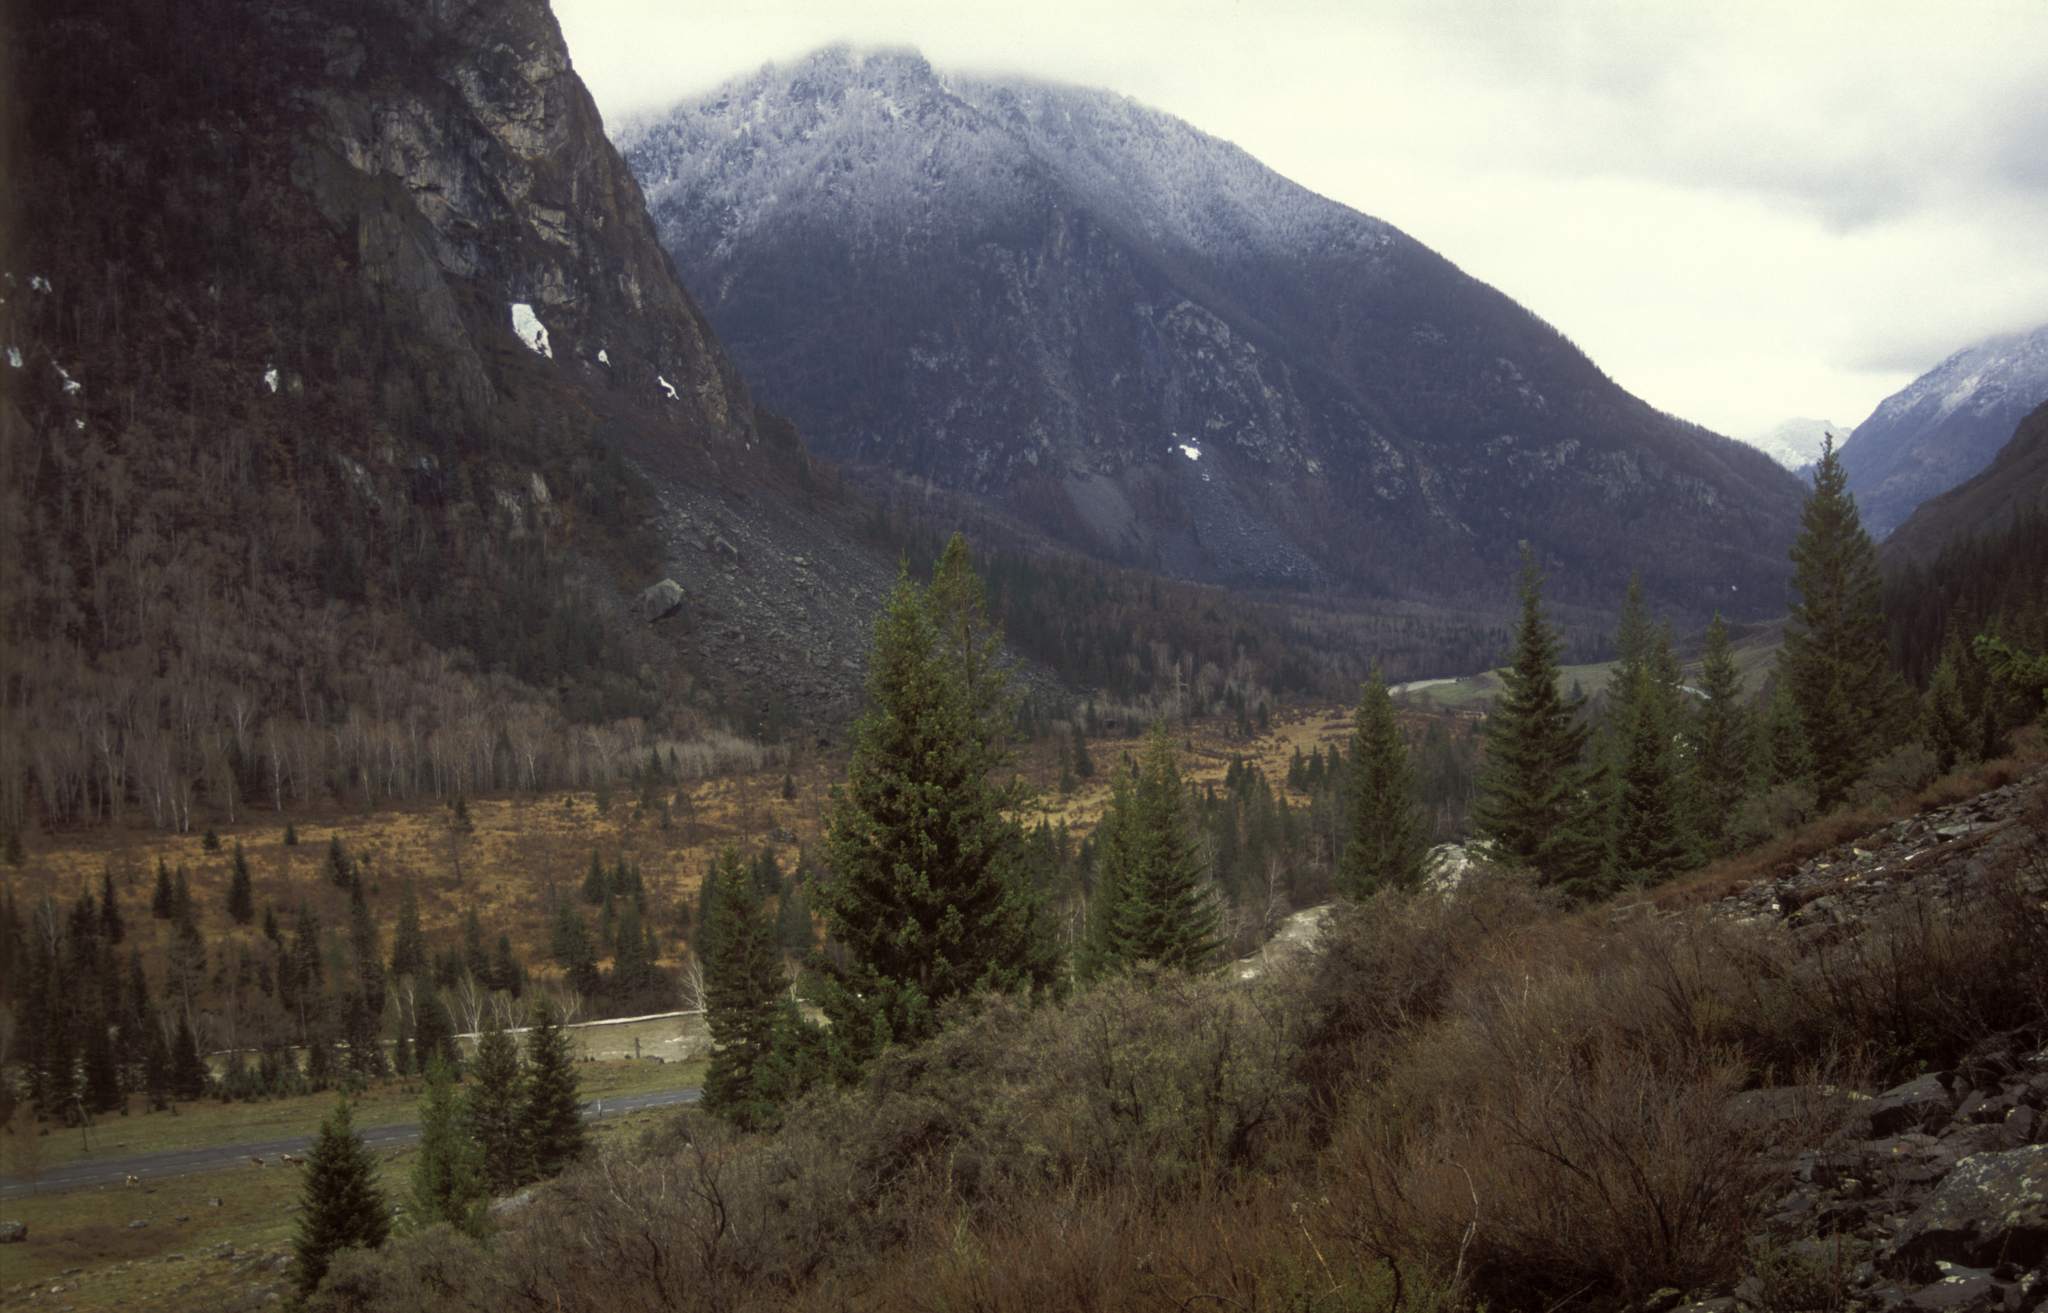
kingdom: Plantae
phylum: Tracheophyta
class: Pinopsida
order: Pinales
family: Pinaceae
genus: Picea
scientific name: Picea obovata
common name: Siberian spruce
